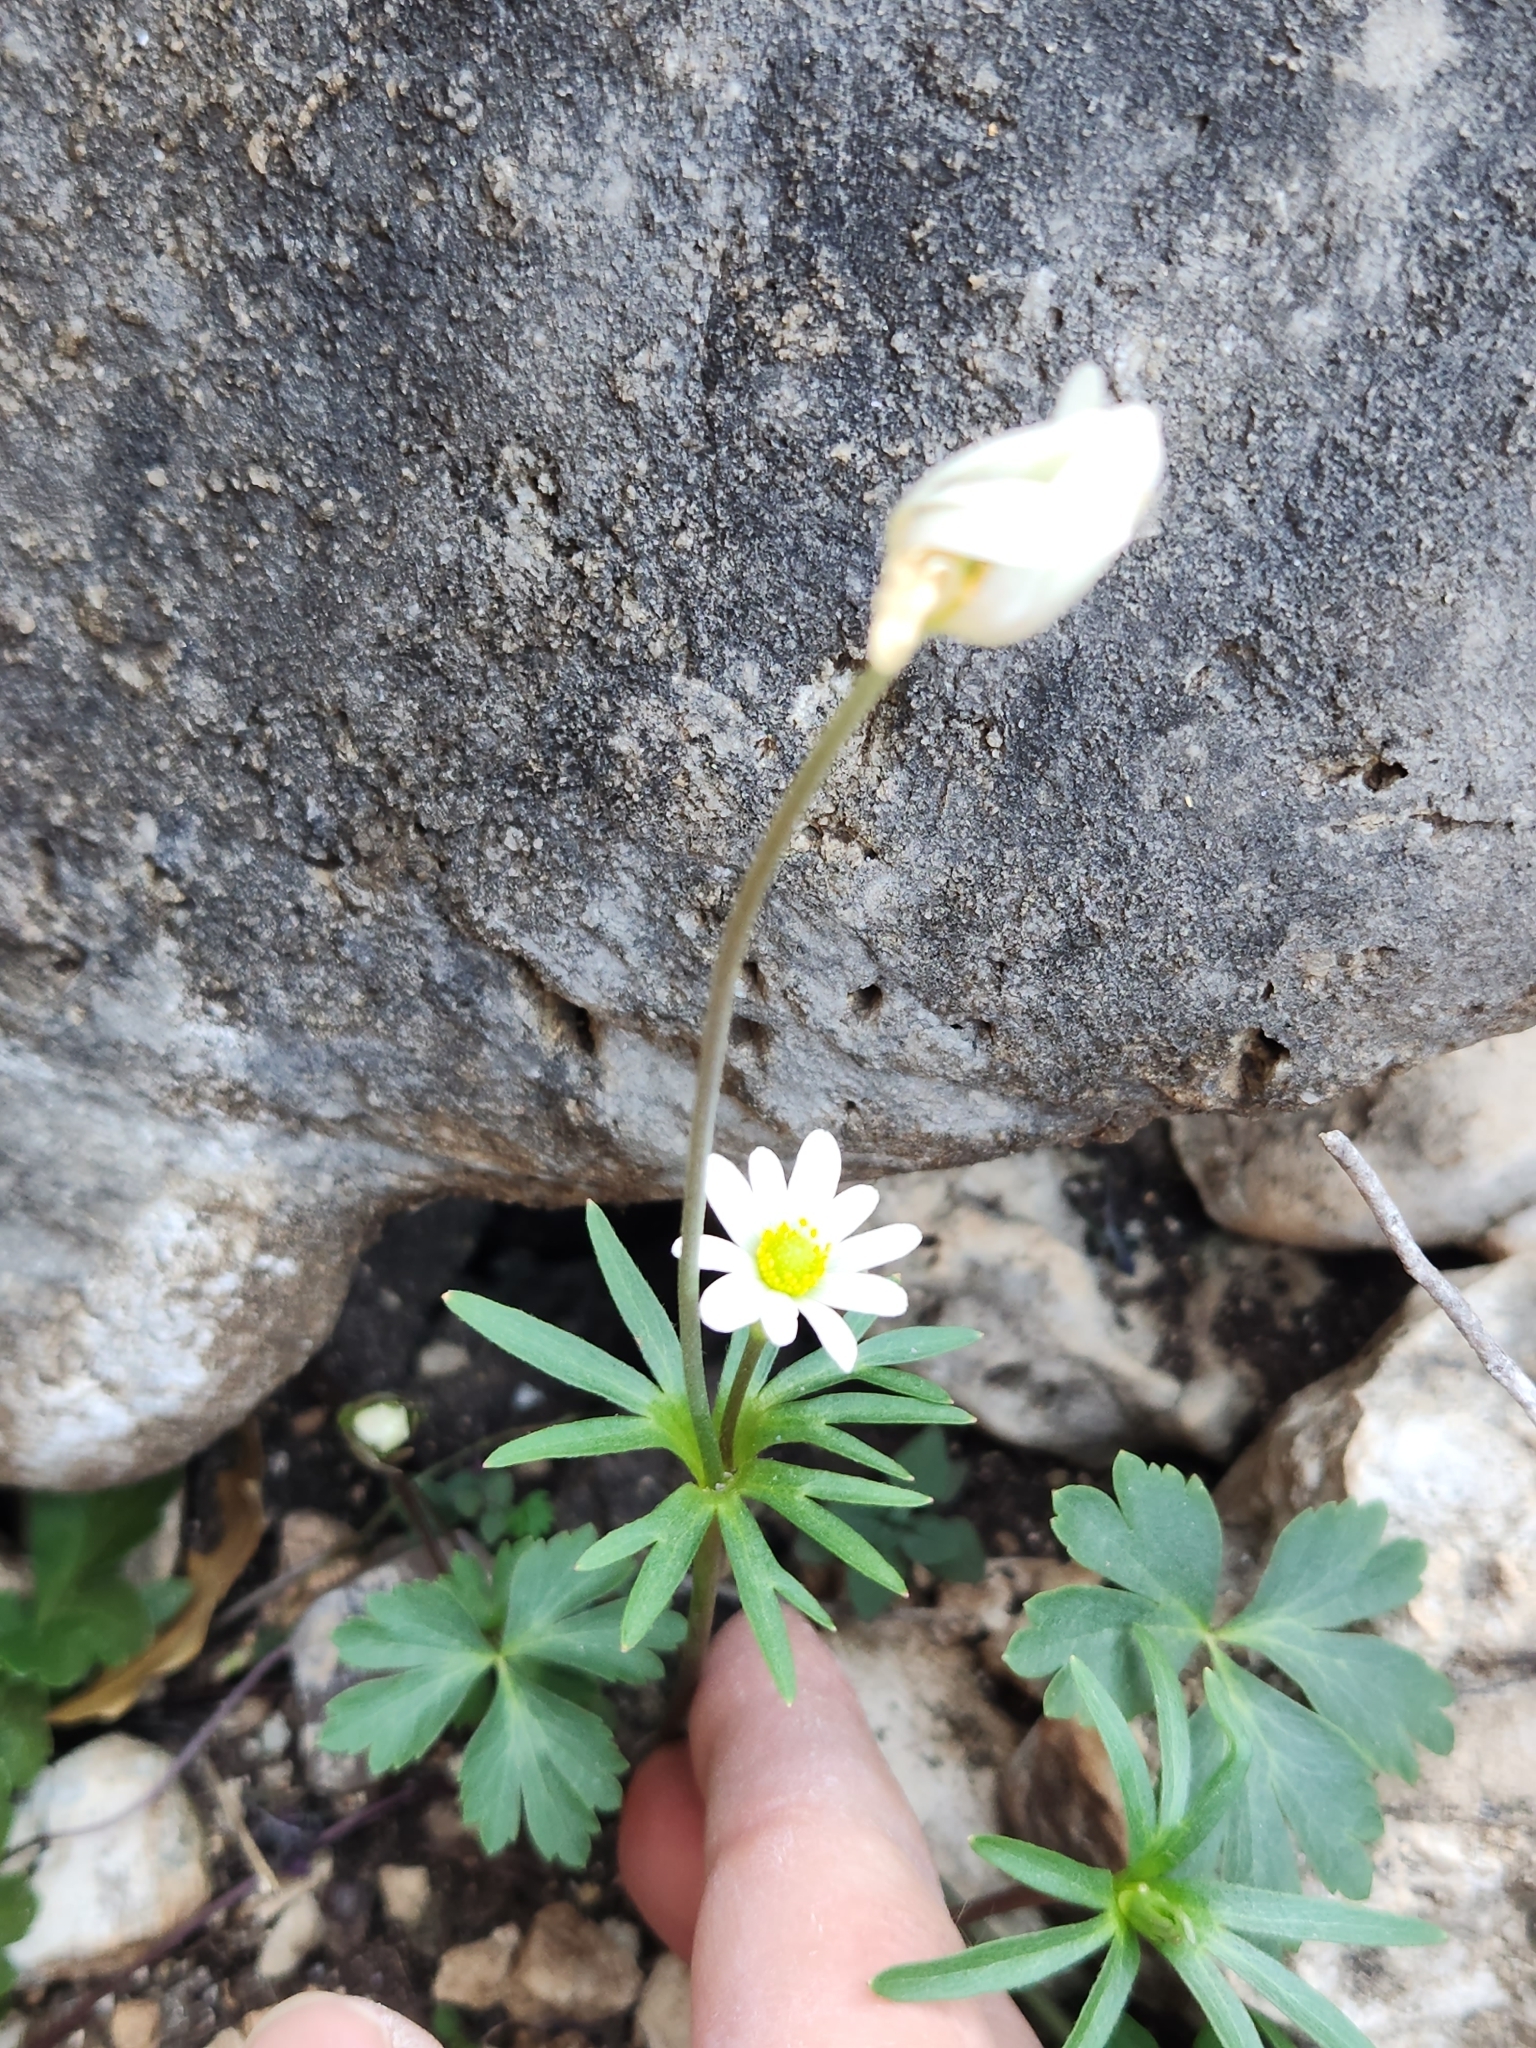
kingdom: Plantae
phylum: Tracheophyta
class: Magnoliopsida
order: Ranunculales
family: Ranunculaceae
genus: Anemone
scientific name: Anemone edwardsiana
